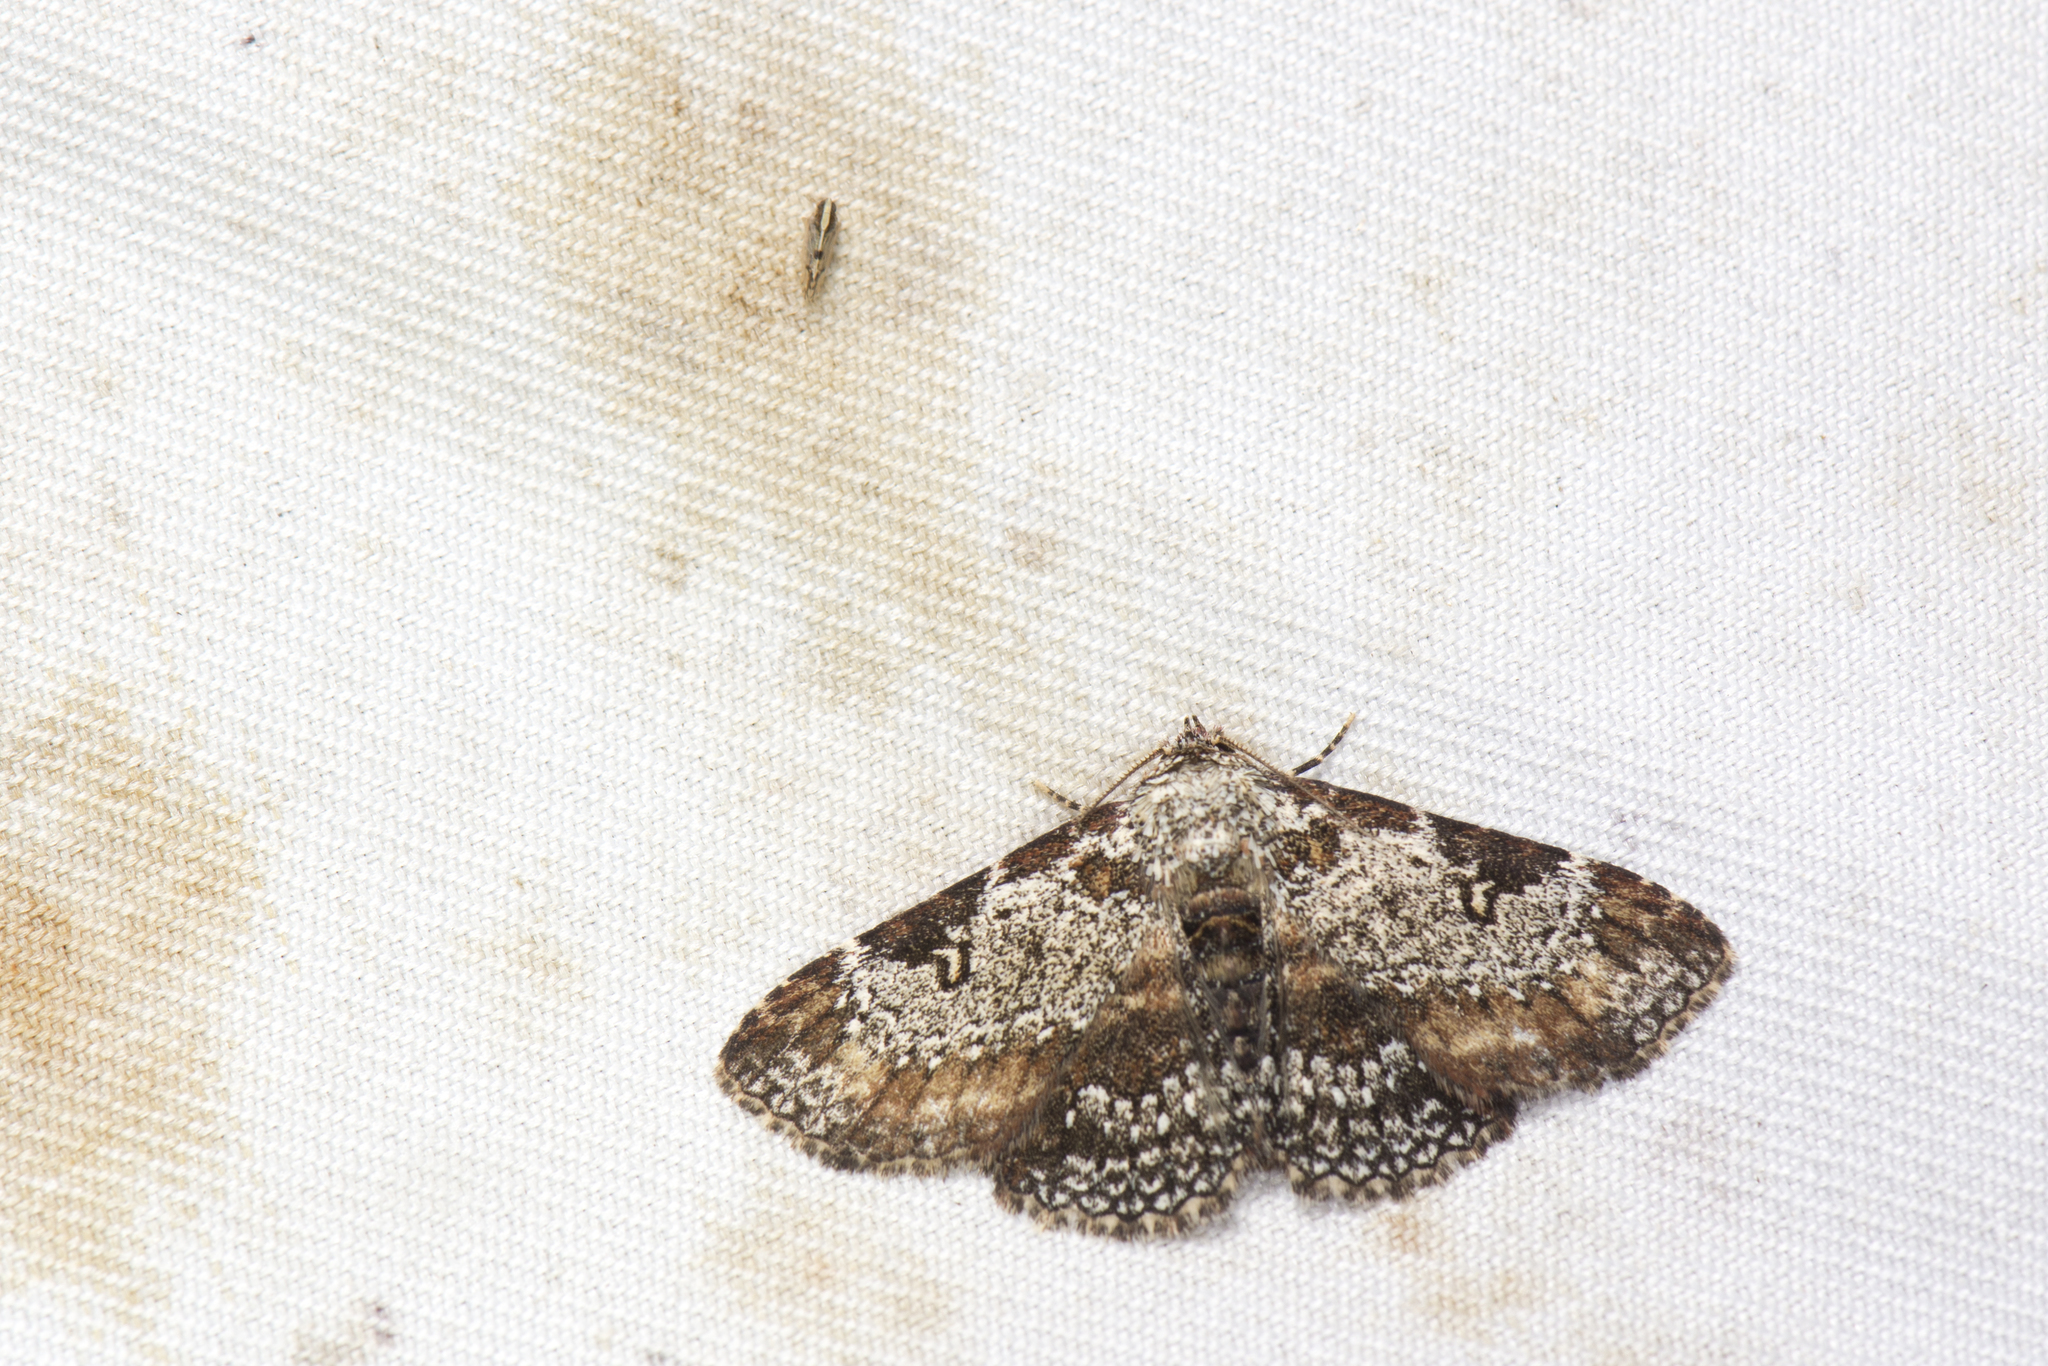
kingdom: Animalia
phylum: Arthropoda
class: Insecta
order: Lepidoptera
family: Erebidae
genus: Caduca
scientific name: Caduca albopunctata
